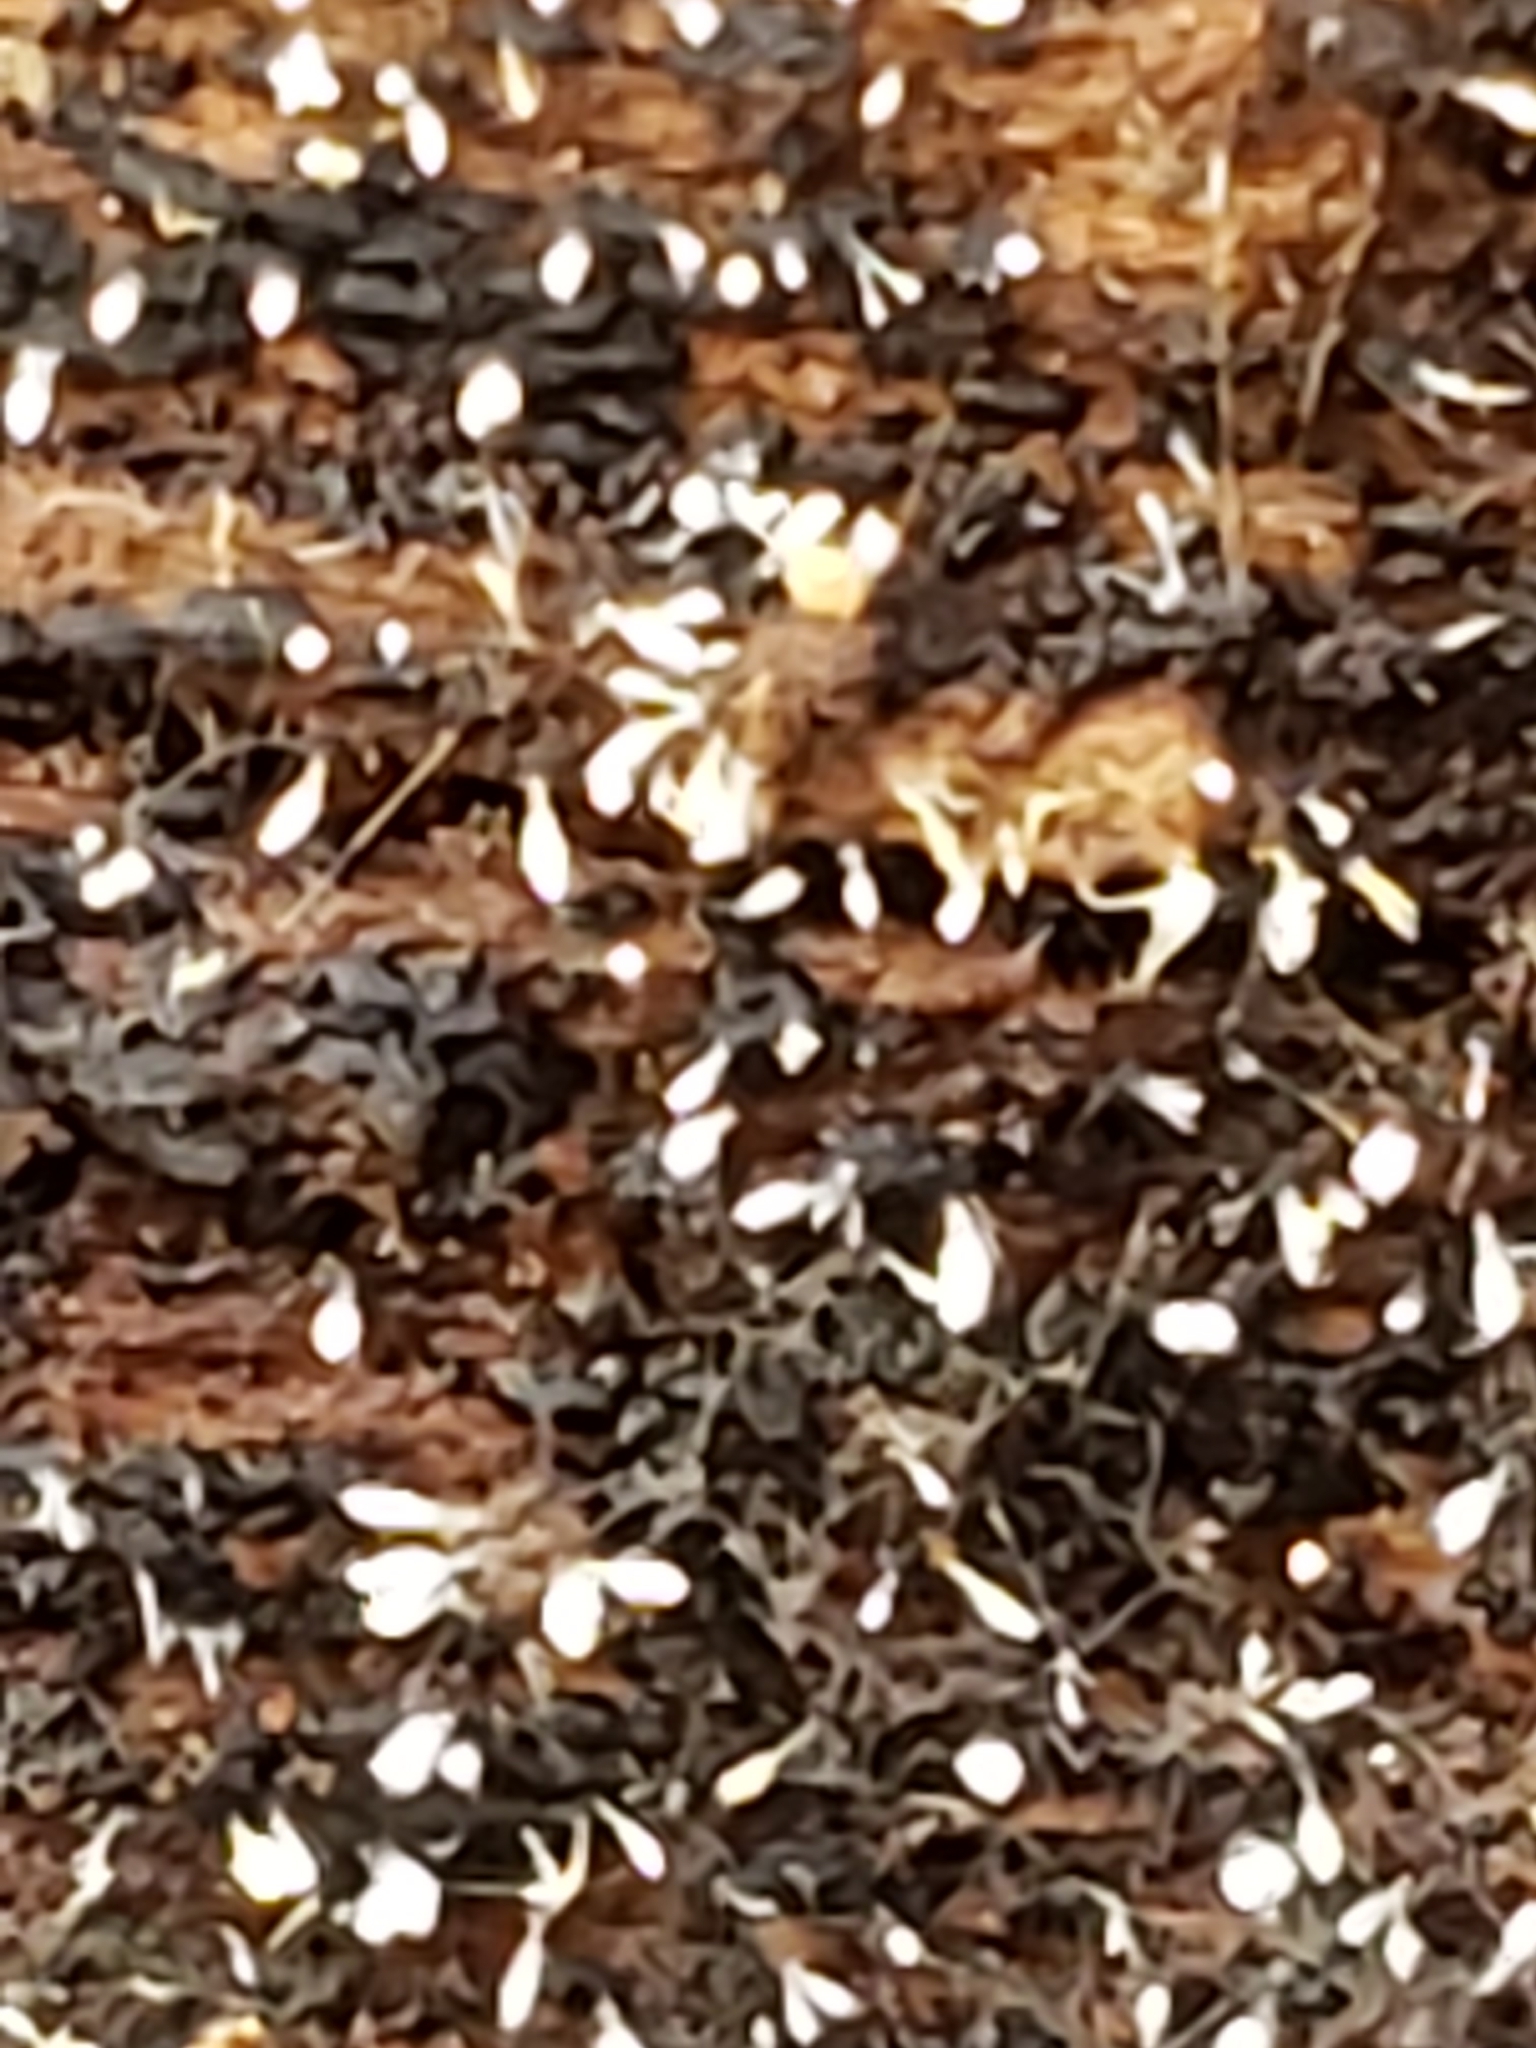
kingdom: Fungi
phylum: Basidiomycota
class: Agaricomycetes
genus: Riessia
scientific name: Riessia semiophora
